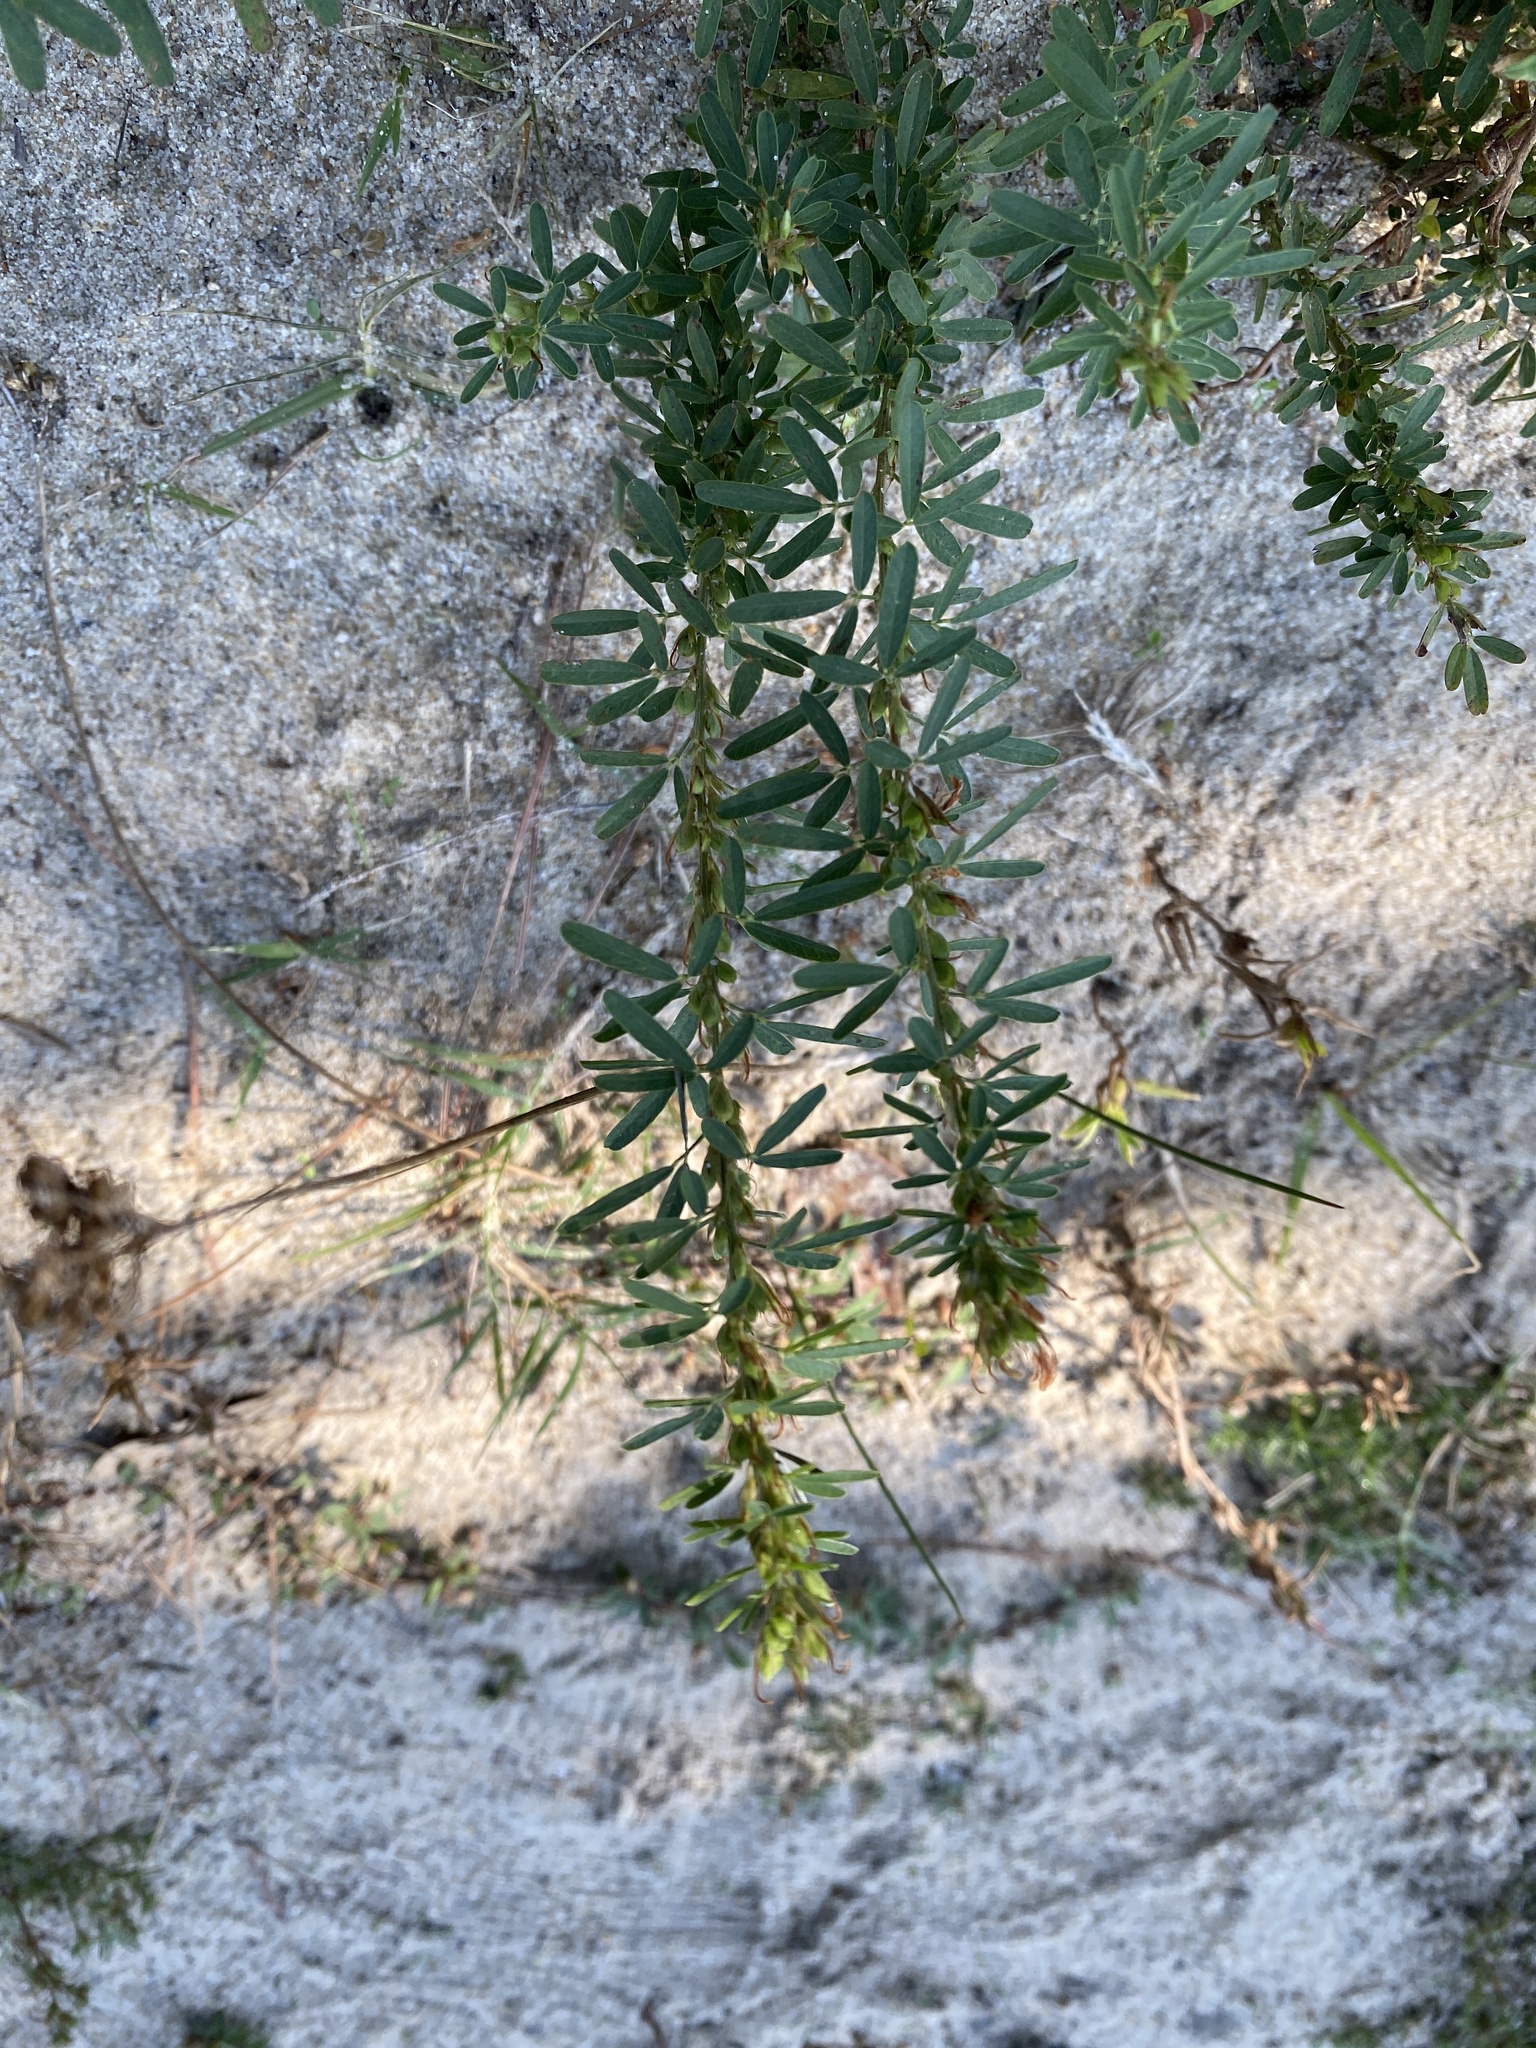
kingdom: Plantae
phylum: Tracheophyta
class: Magnoliopsida
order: Fabales
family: Fabaceae
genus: Lespedeza
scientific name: Lespedeza cuneata
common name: Chinese bush-clover
